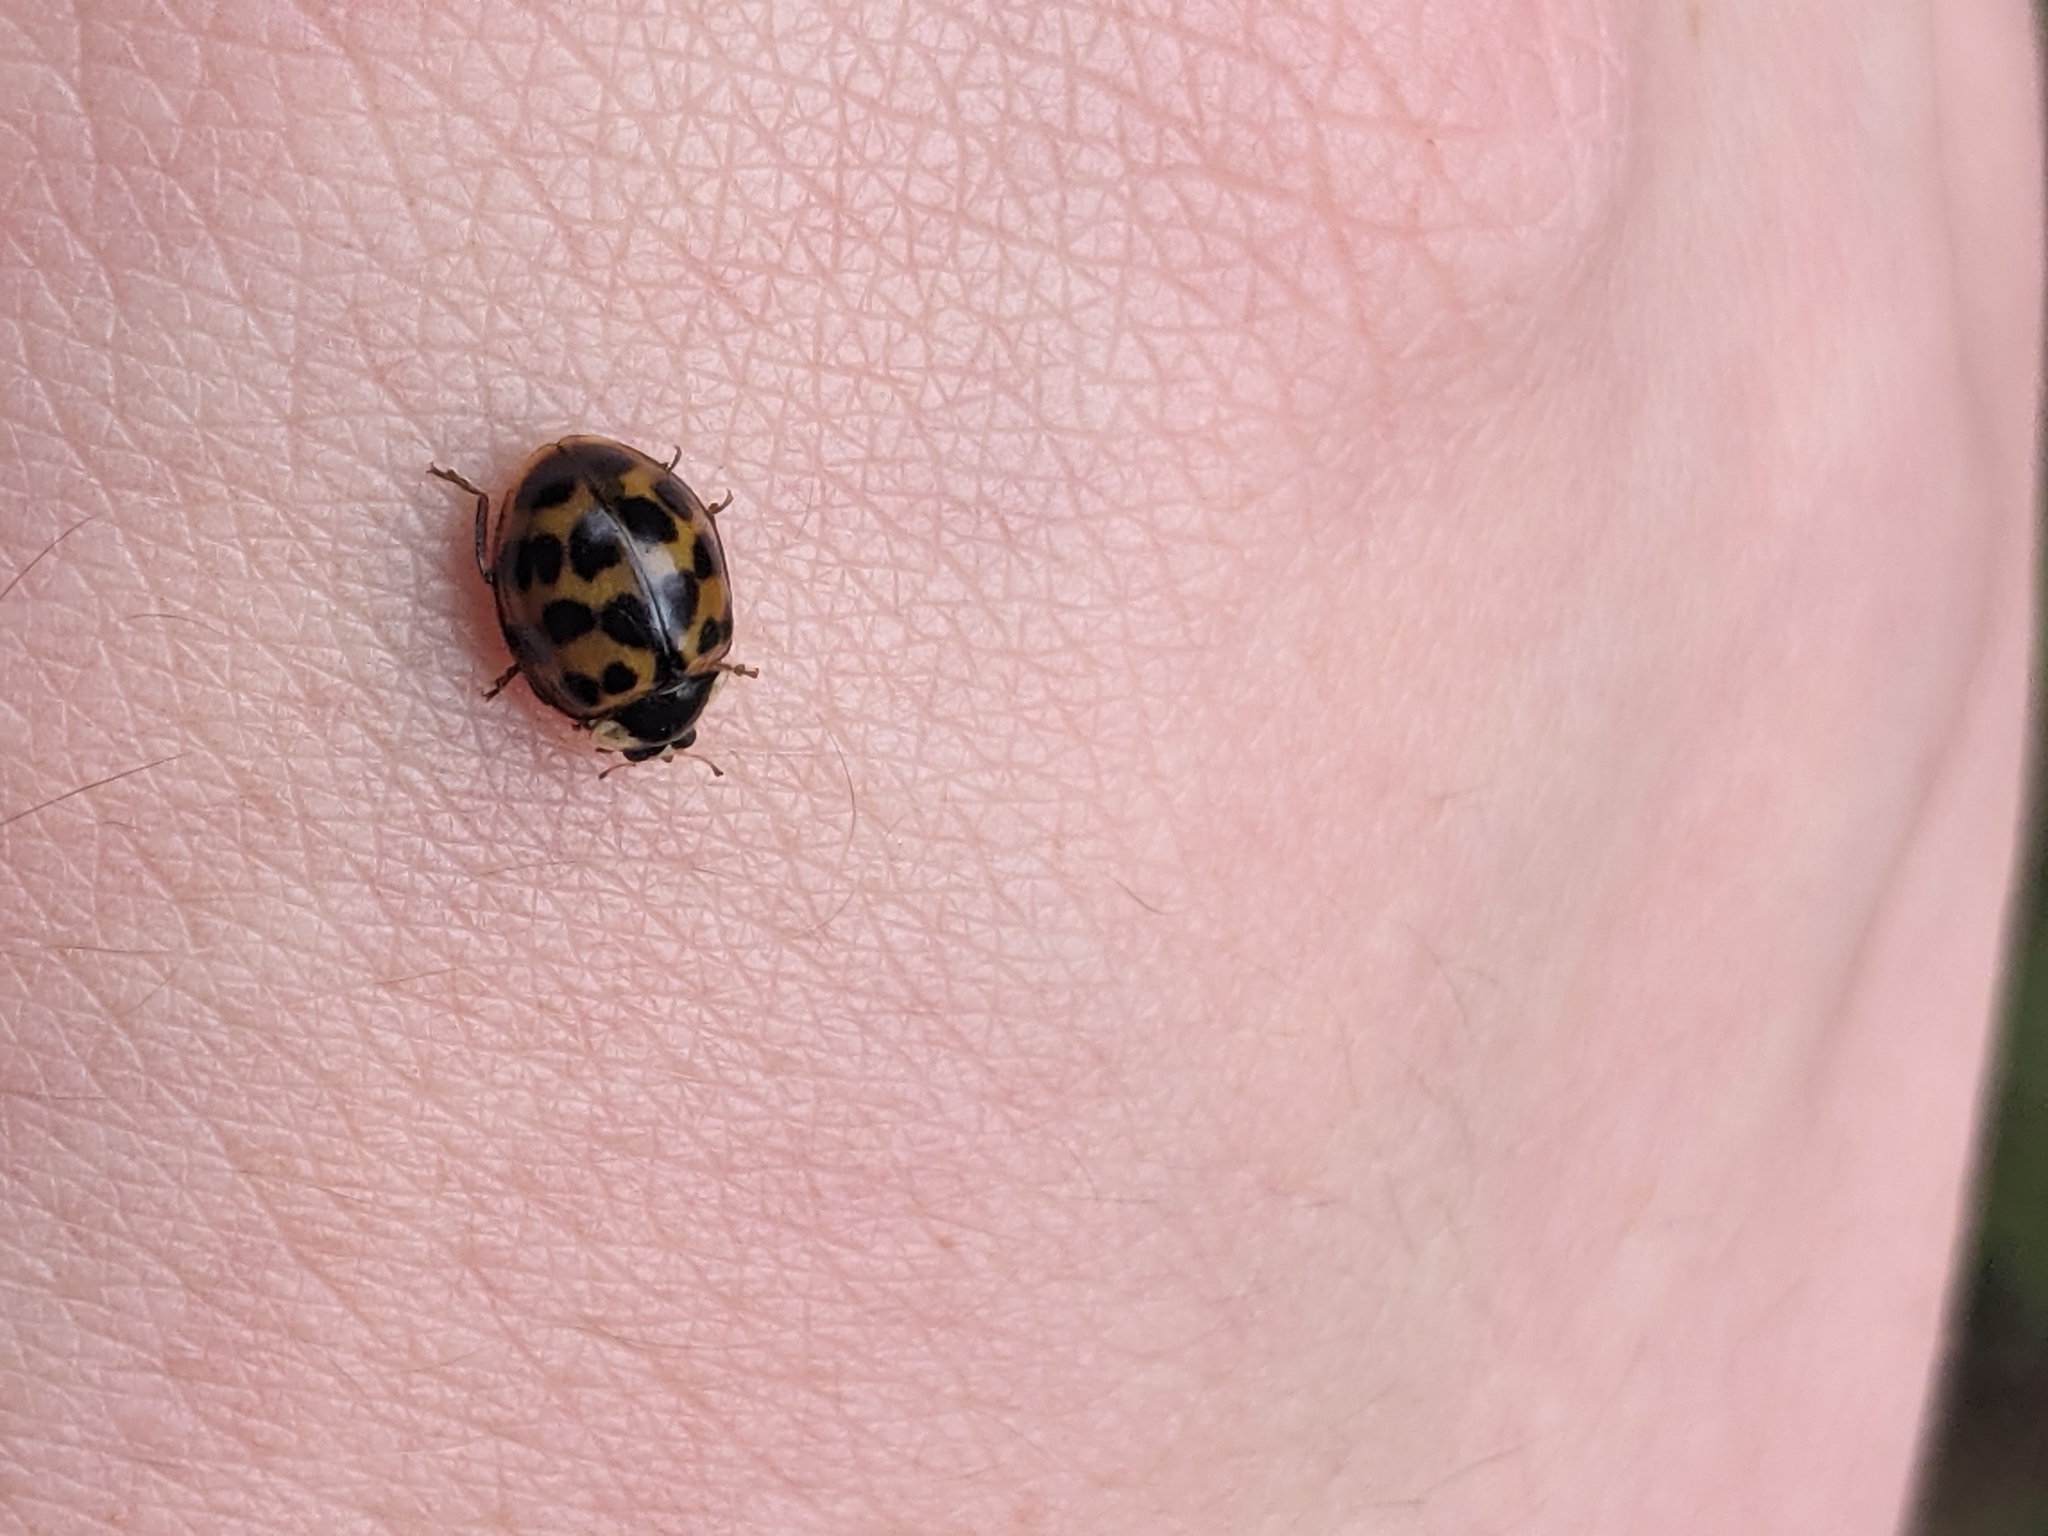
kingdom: Animalia
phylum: Arthropoda
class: Insecta
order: Coleoptera
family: Coccinellidae
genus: Harmonia
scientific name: Harmonia axyridis
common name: Harlequin ladybird
